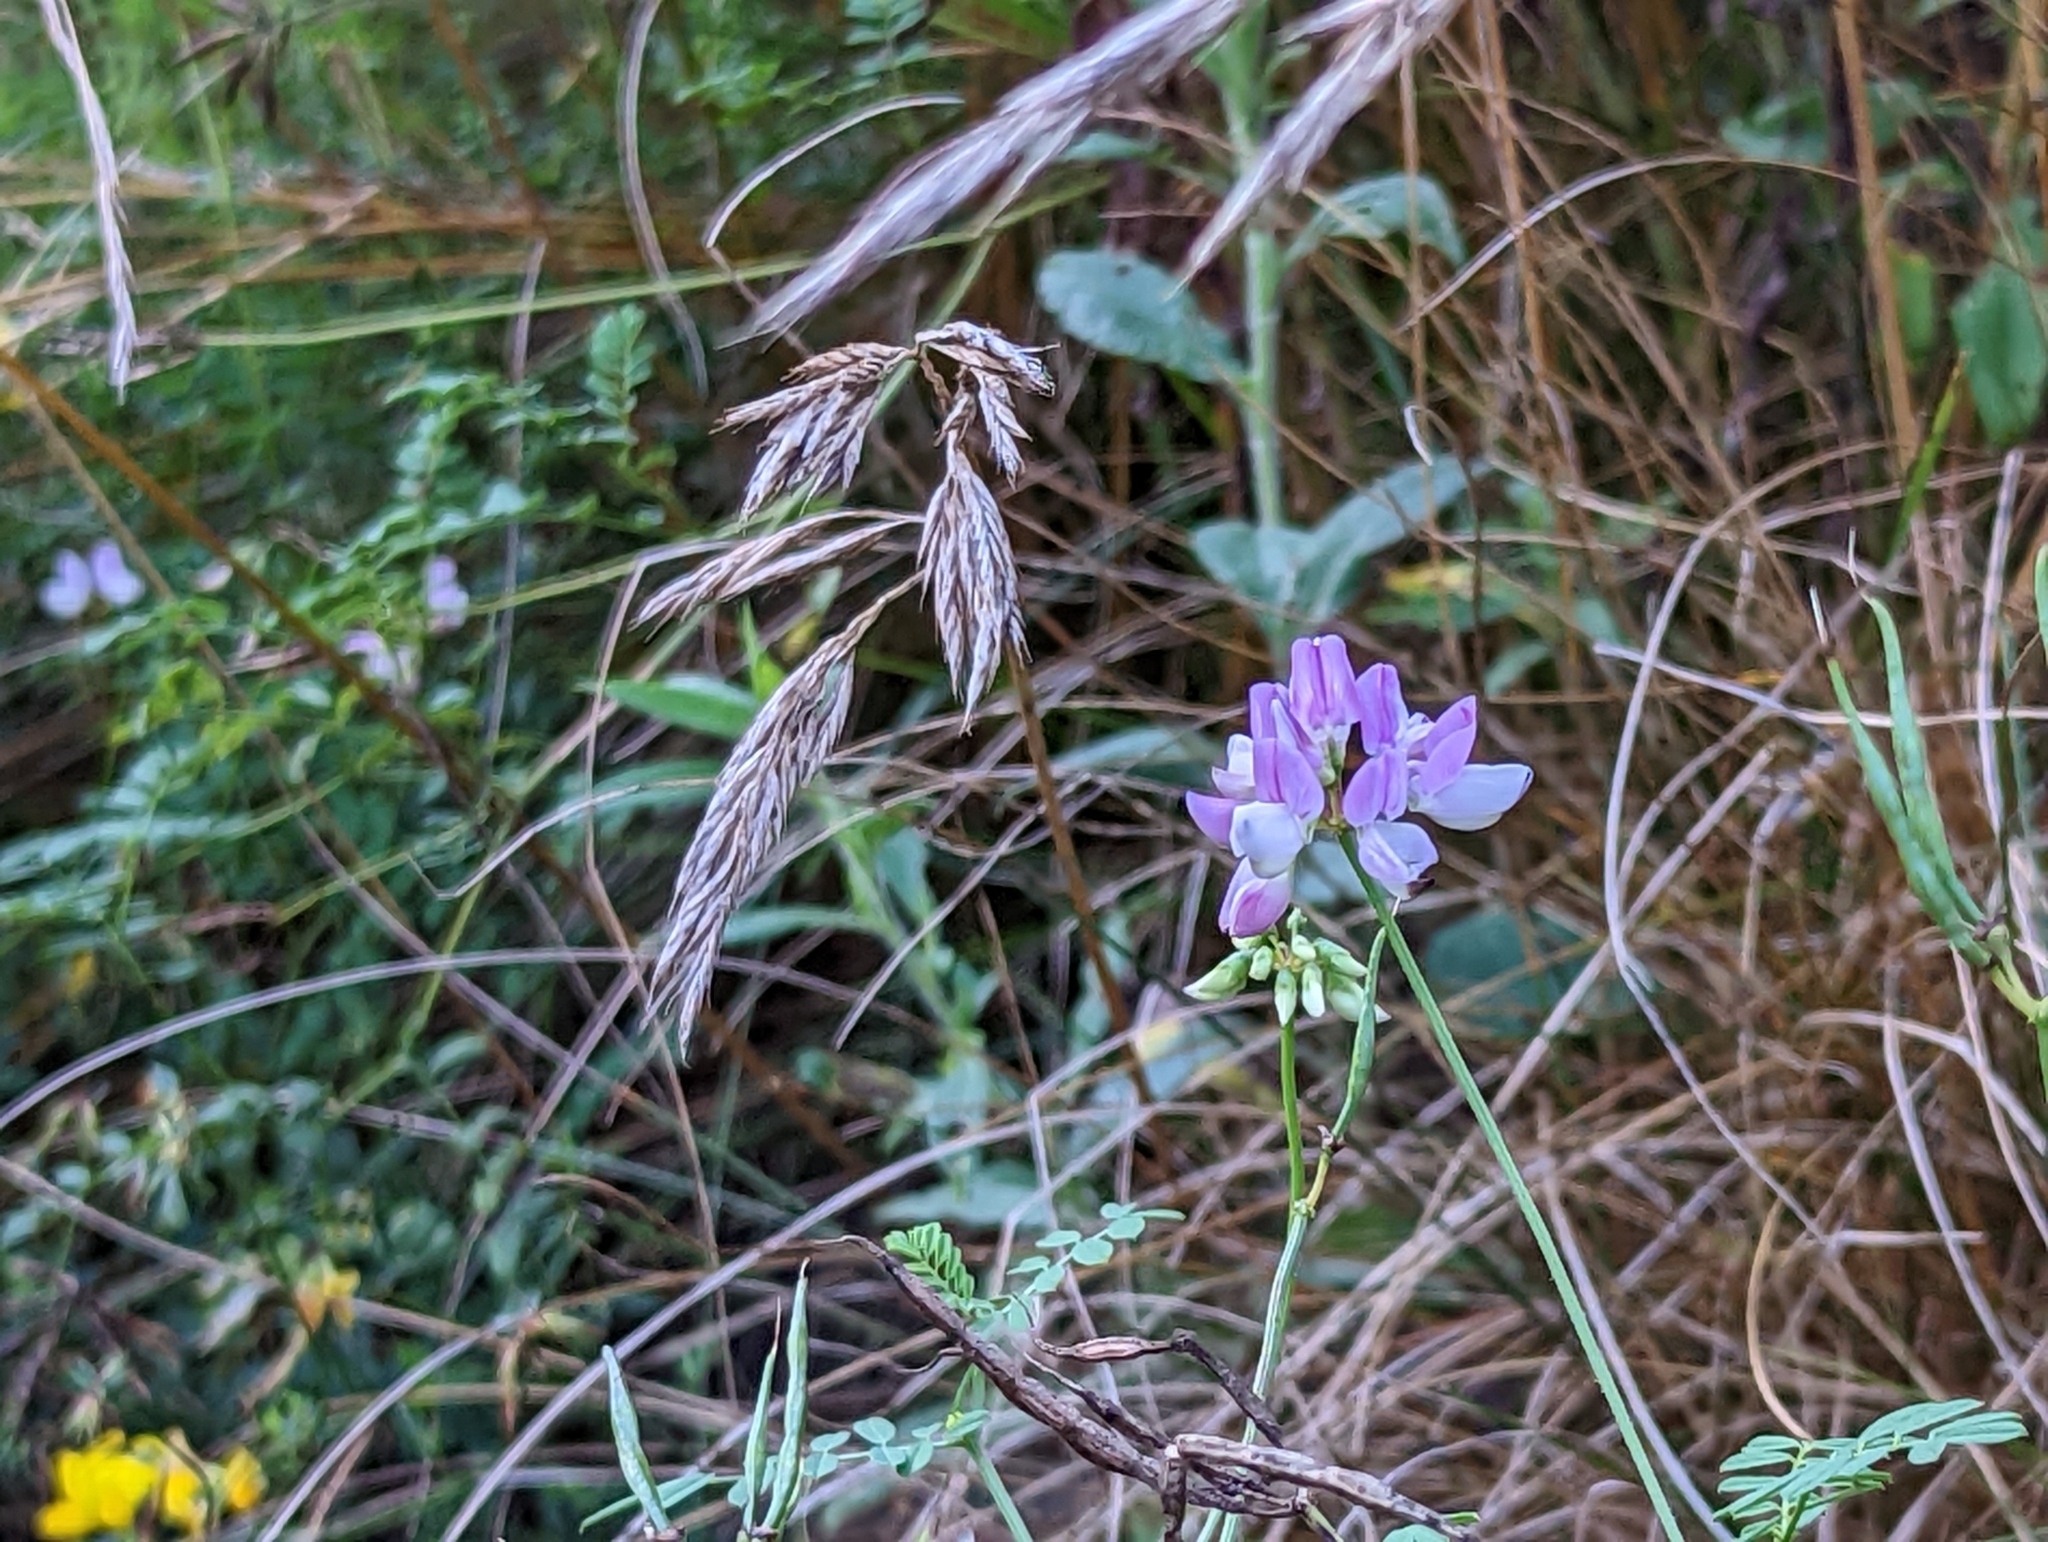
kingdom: Plantae
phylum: Tracheophyta
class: Magnoliopsida
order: Fabales
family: Fabaceae
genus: Coronilla
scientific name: Coronilla varia
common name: Crownvetch
